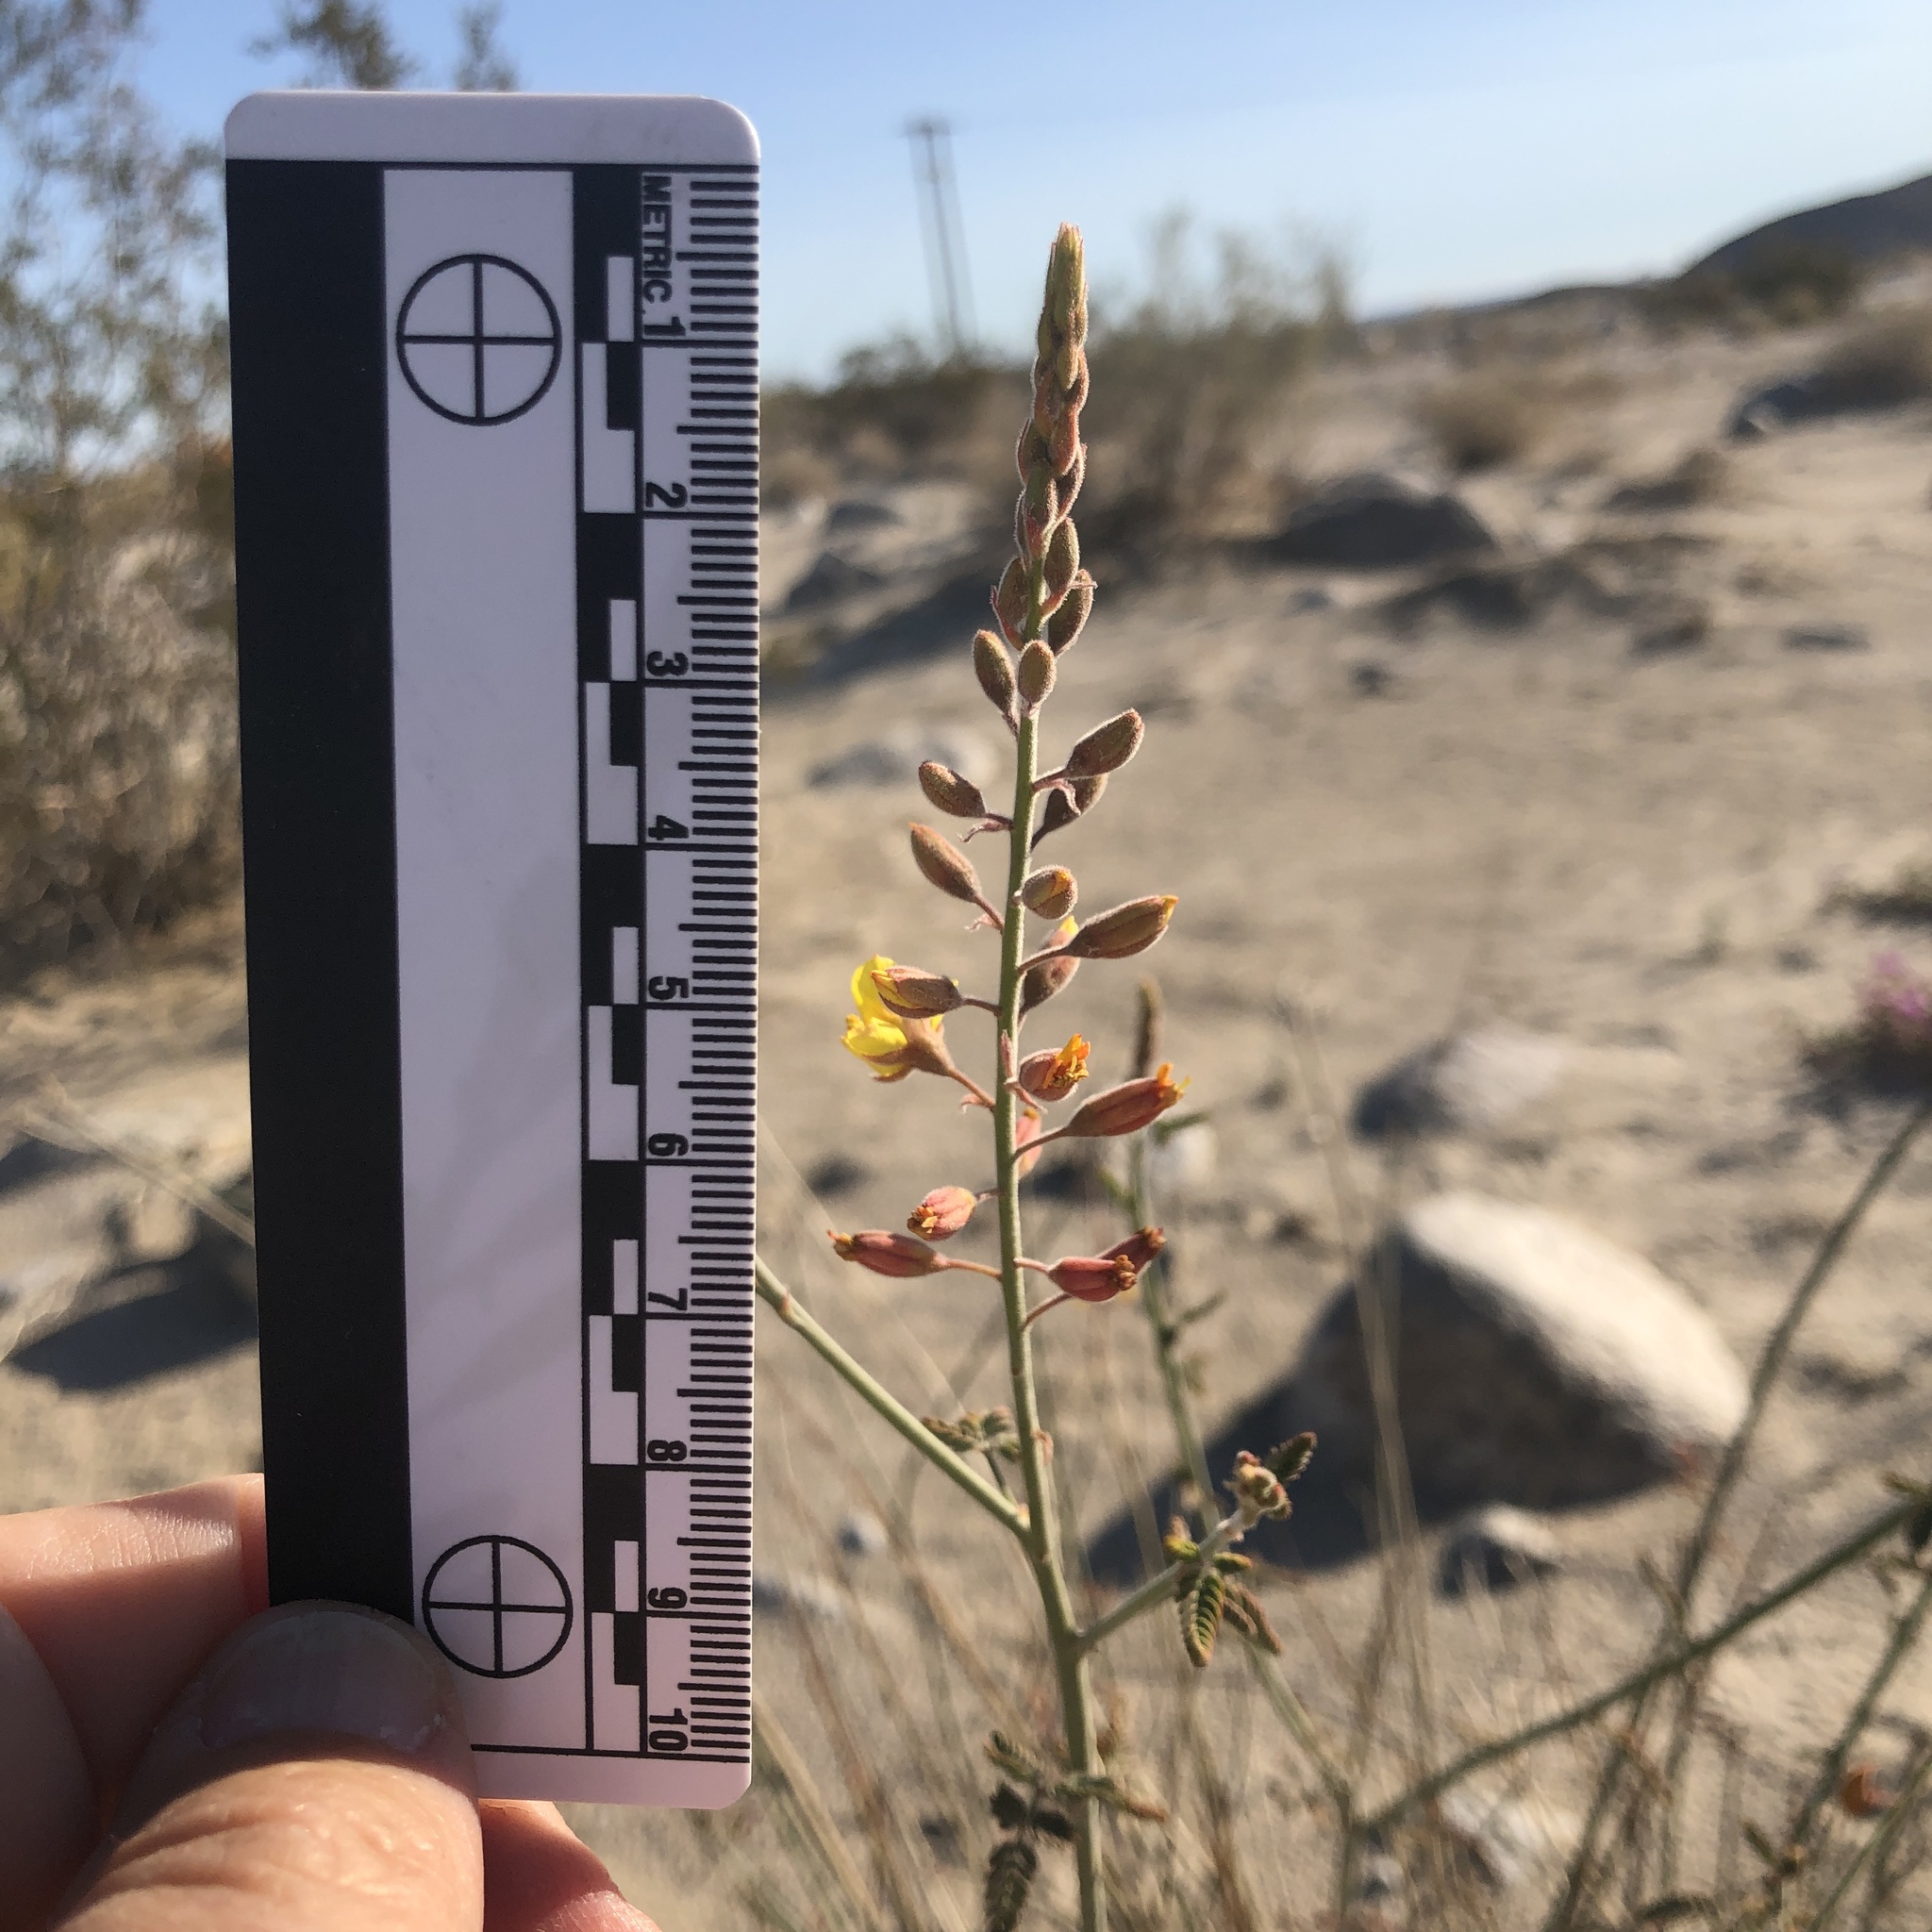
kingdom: Plantae
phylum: Tracheophyta
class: Magnoliopsida
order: Fabales
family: Fabaceae
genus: Hoffmannseggia
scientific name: Hoffmannseggia microphylla
